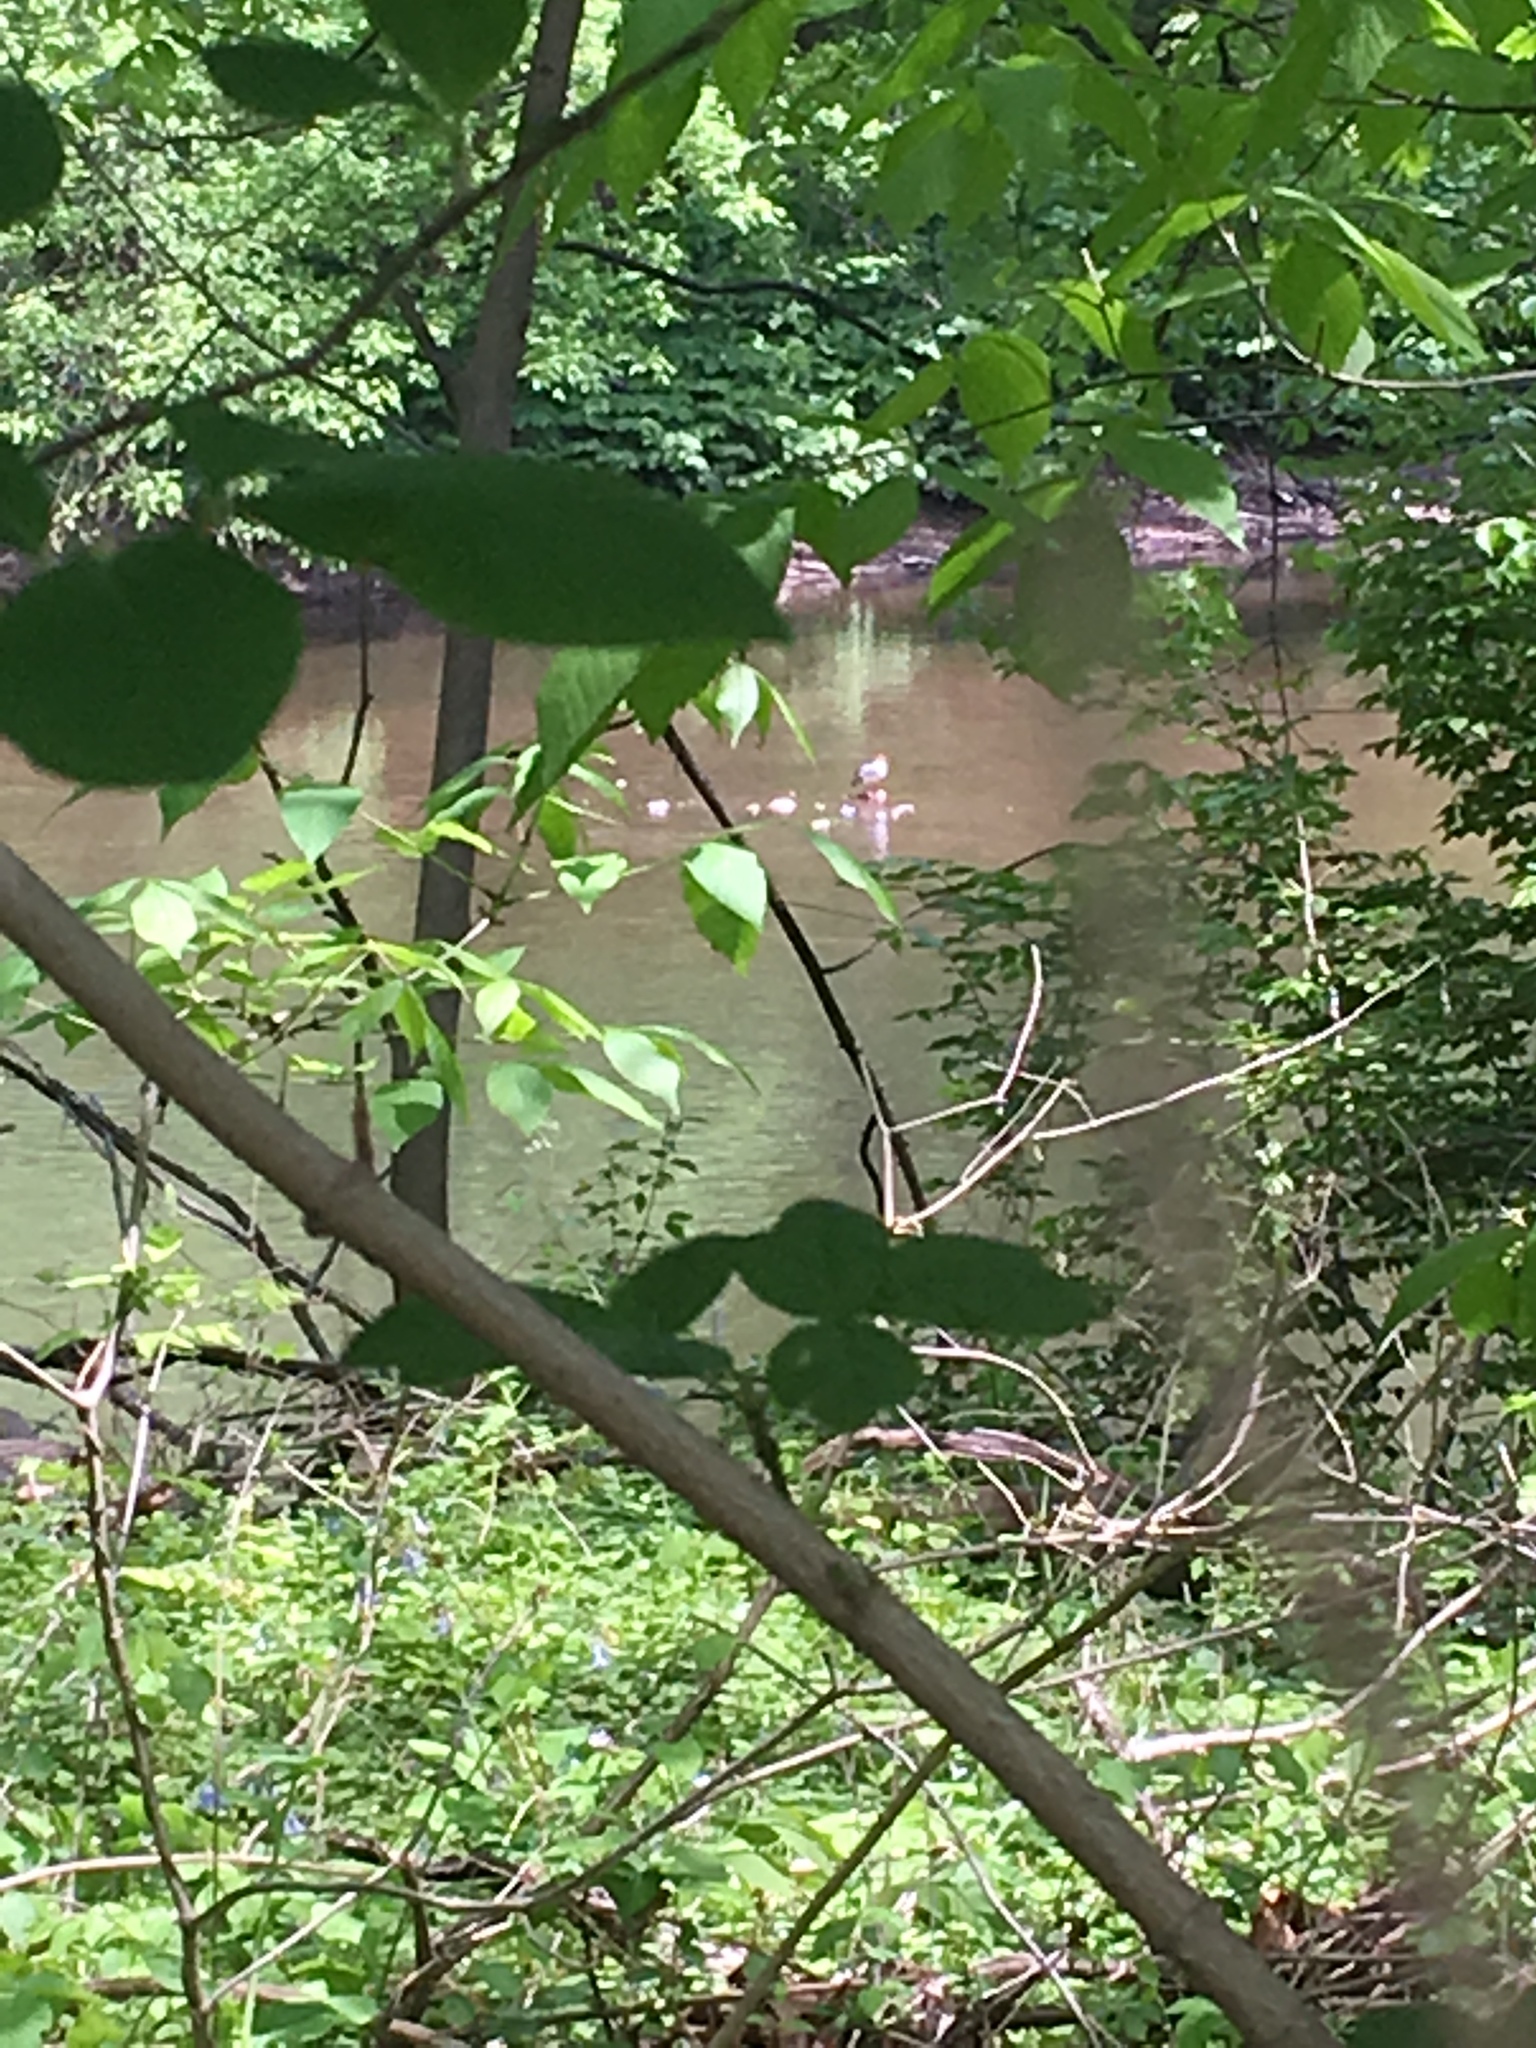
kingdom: Animalia
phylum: Chordata
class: Aves
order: Anseriformes
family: Anatidae
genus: Mergus
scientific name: Mergus merganser
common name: Common merganser
